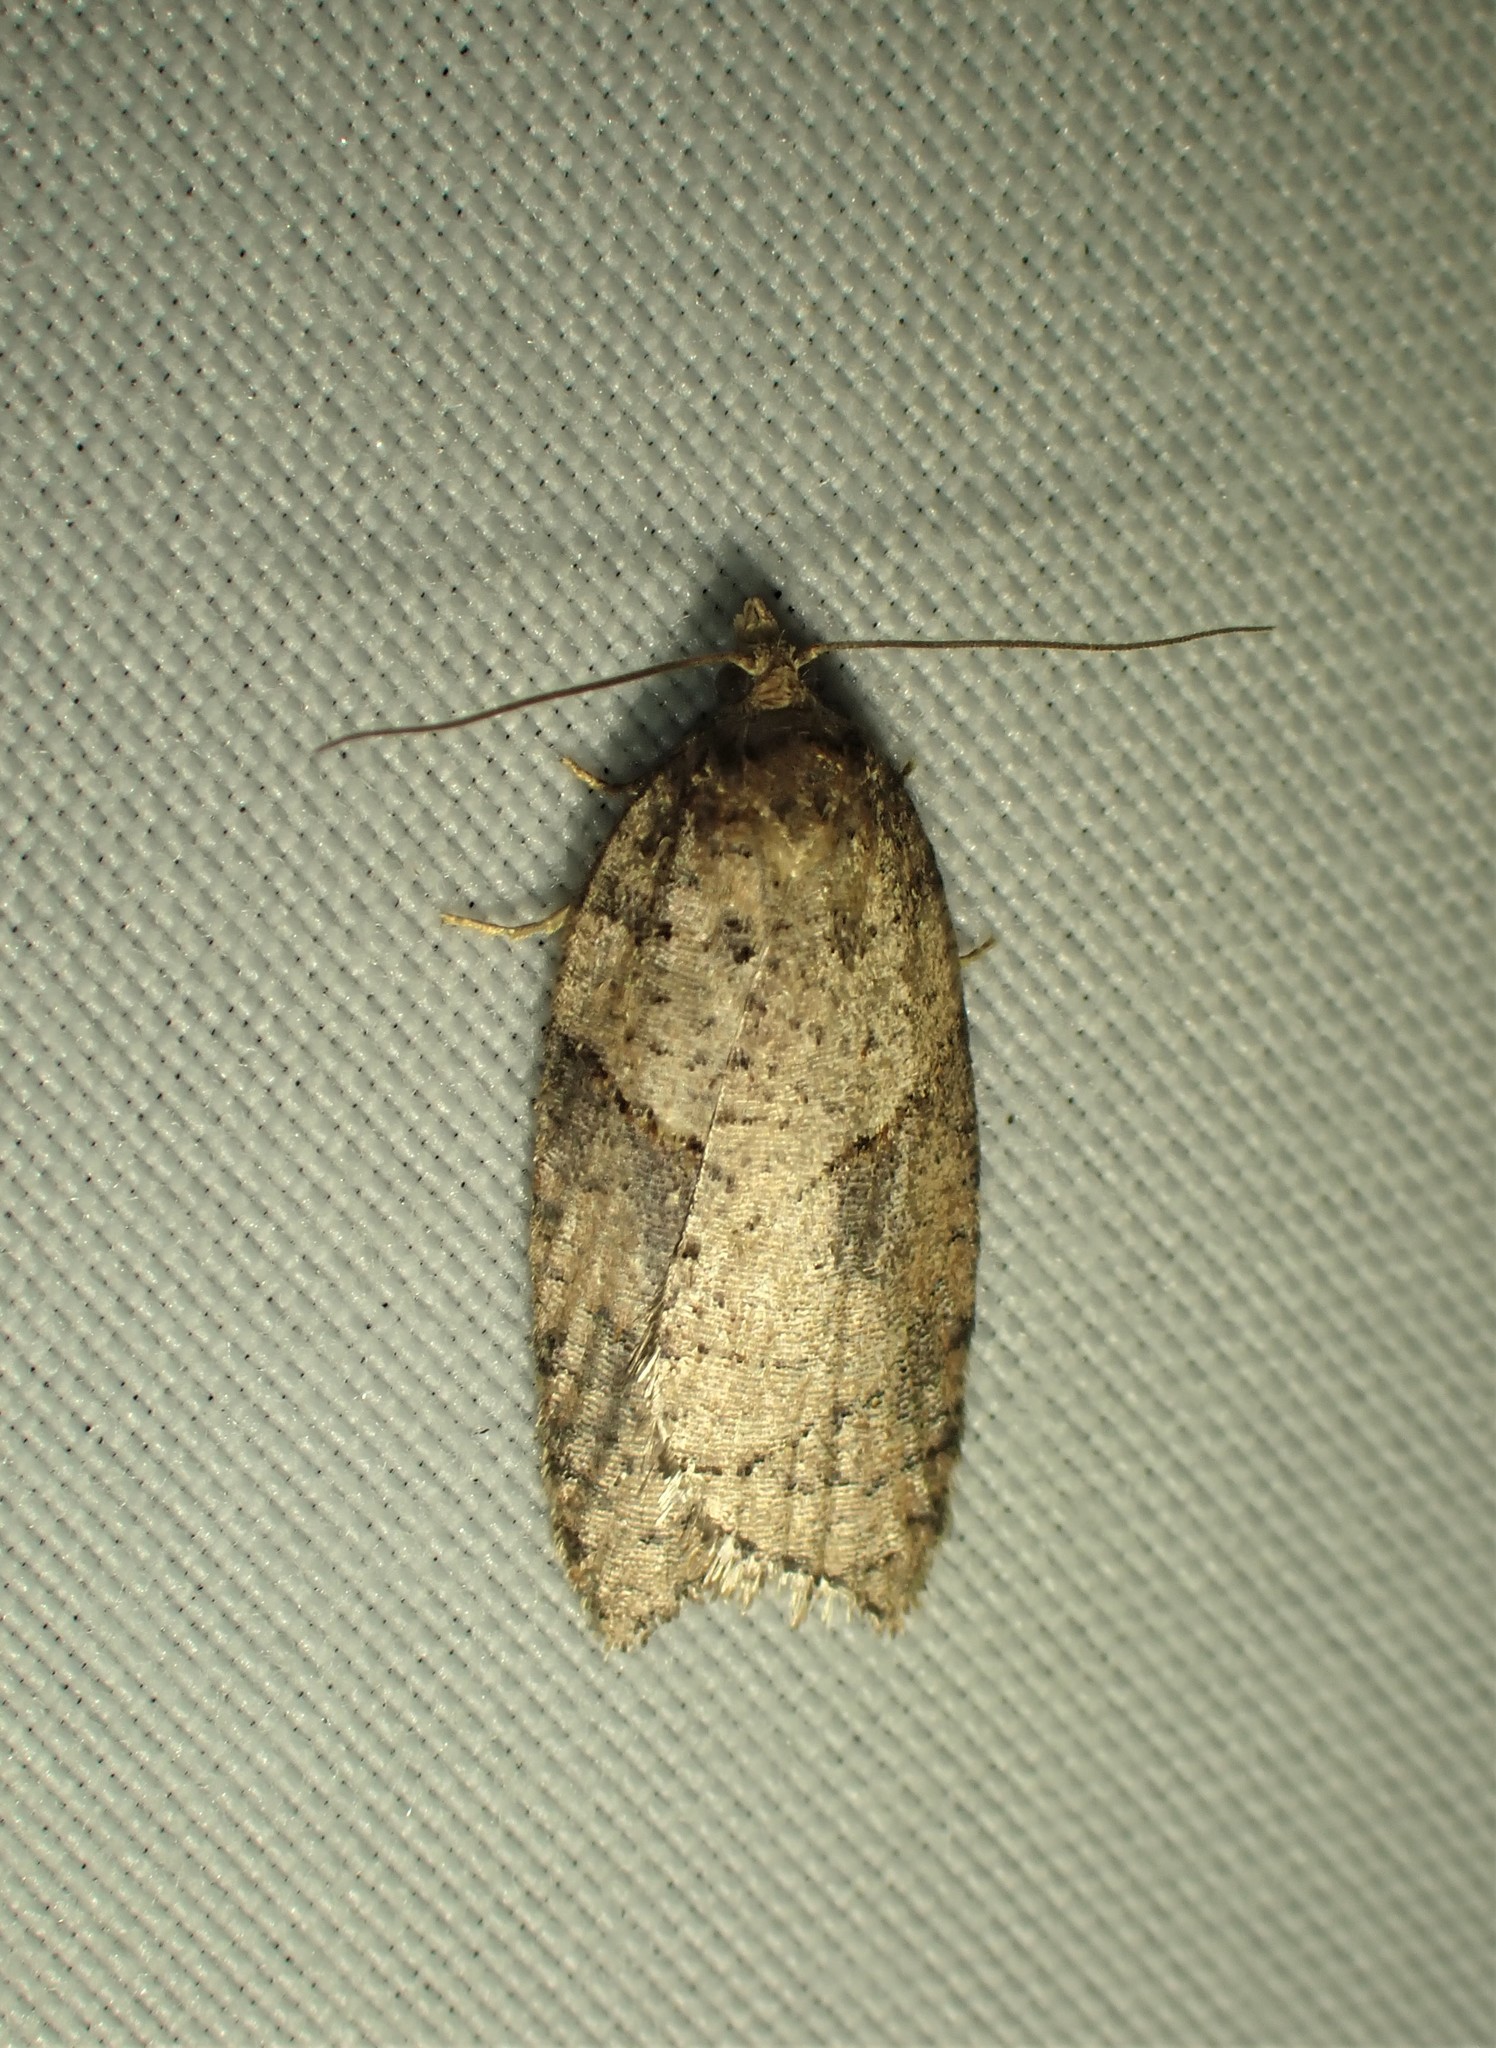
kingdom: Animalia
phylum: Arthropoda
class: Insecta
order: Lepidoptera
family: Tortricidae
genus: Acleris
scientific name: Acleris maccana
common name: Marbled button
